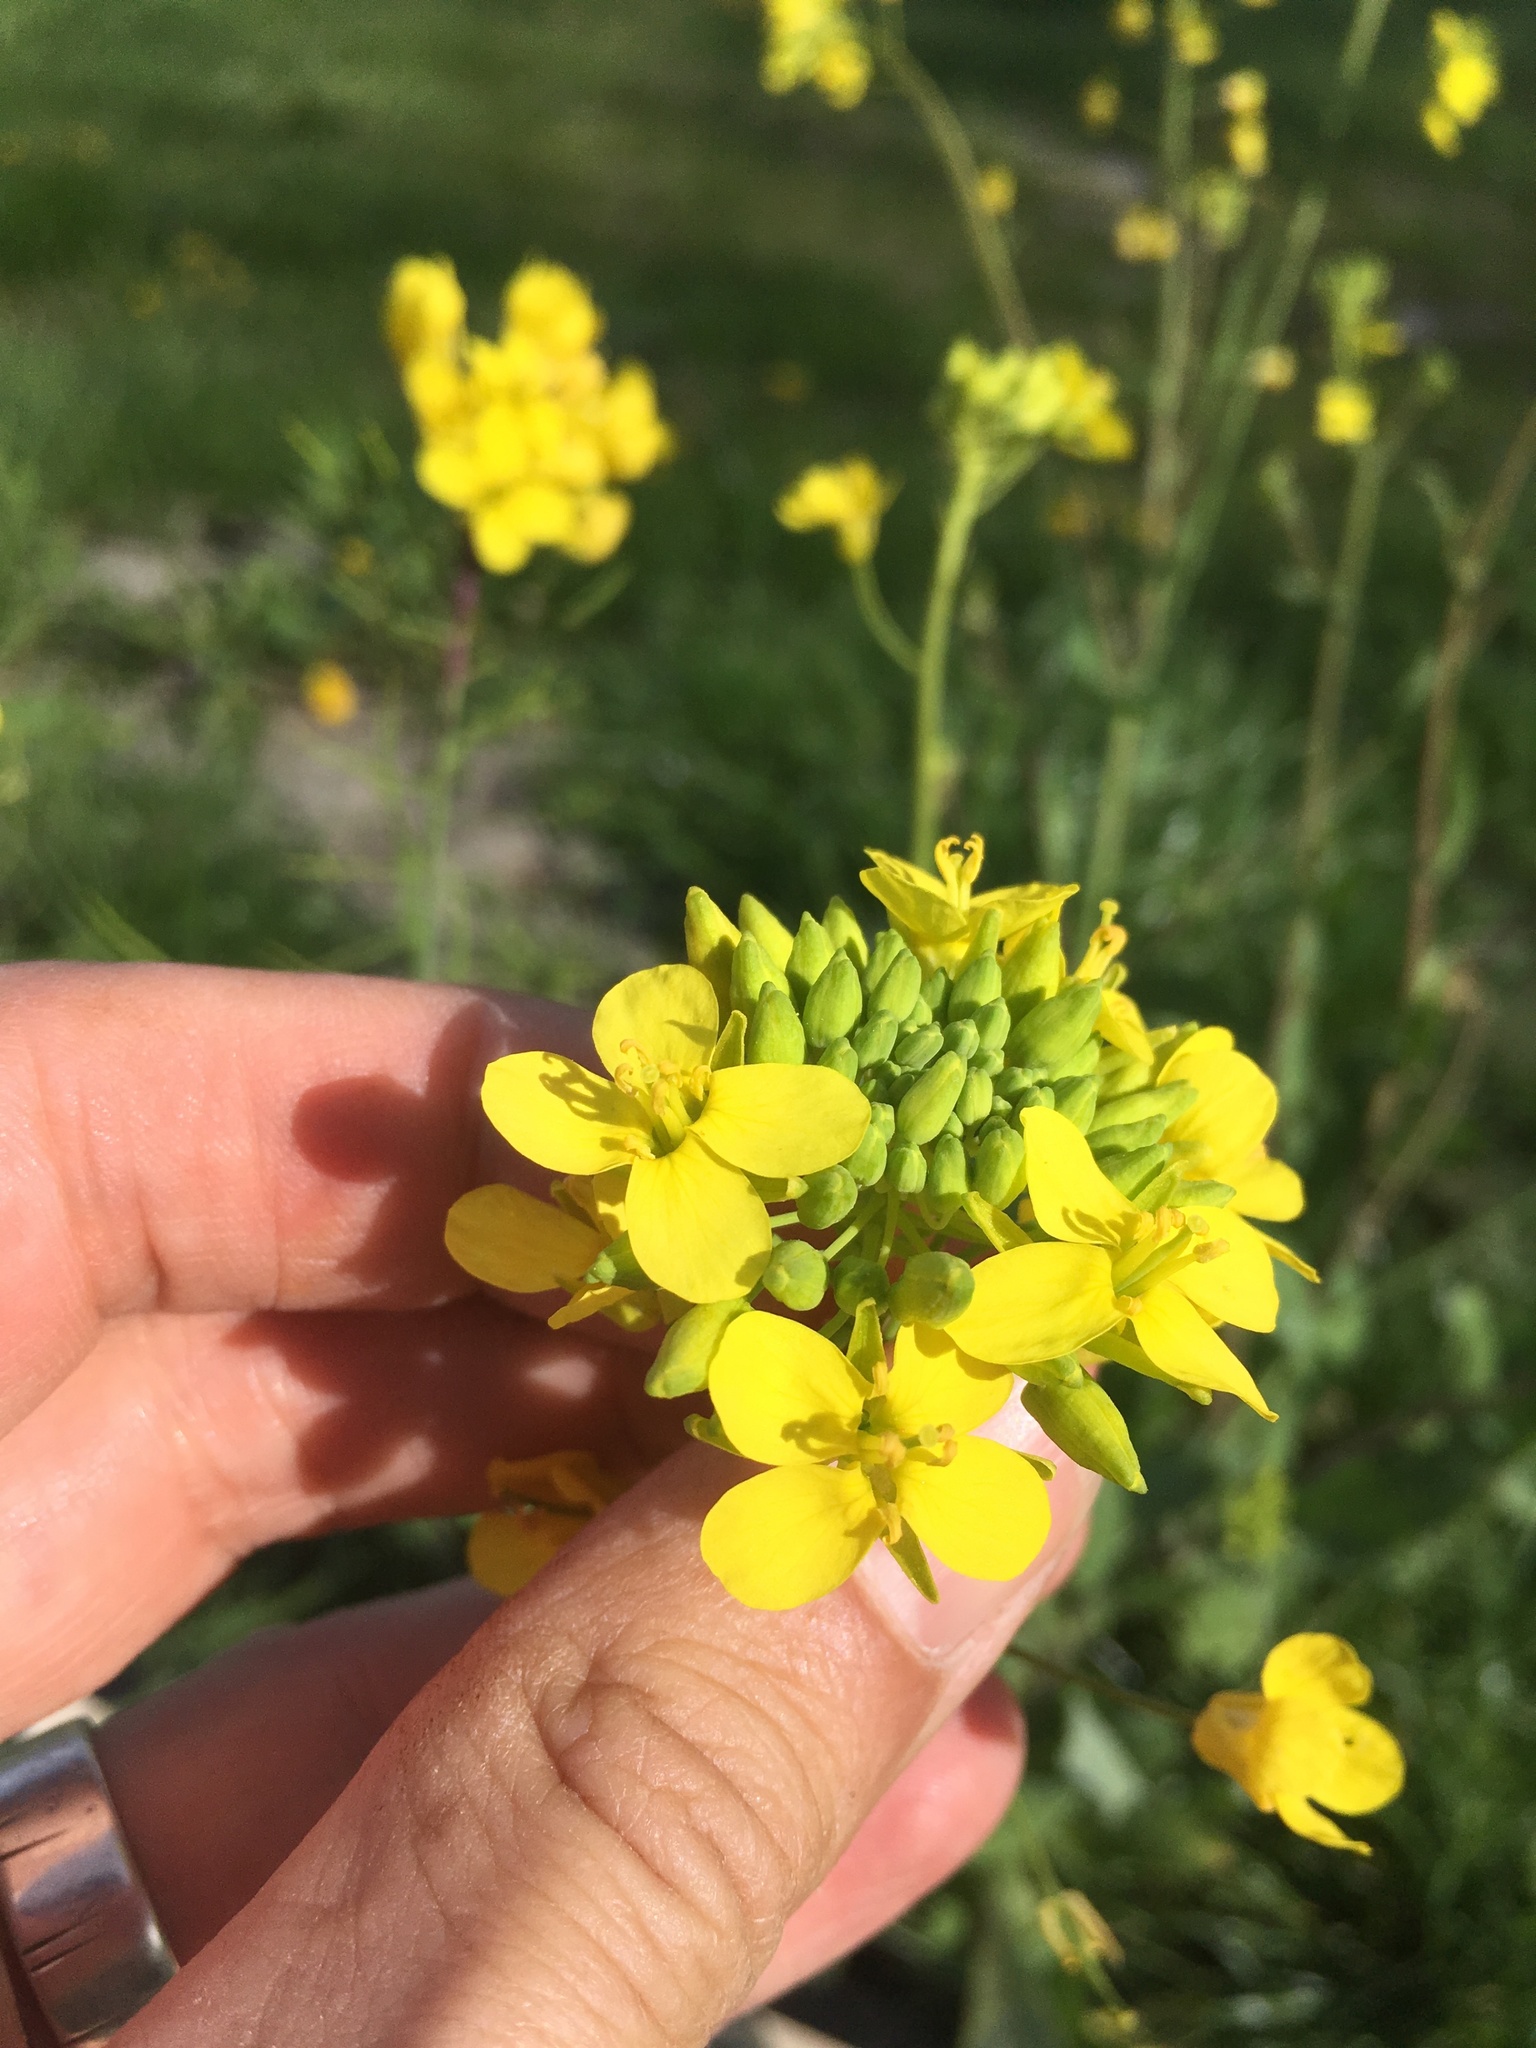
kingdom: Plantae
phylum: Tracheophyta
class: Magnoliopsida
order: Brassicales
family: Brassicaceae
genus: Brassica
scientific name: Brassica napus
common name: Rape
